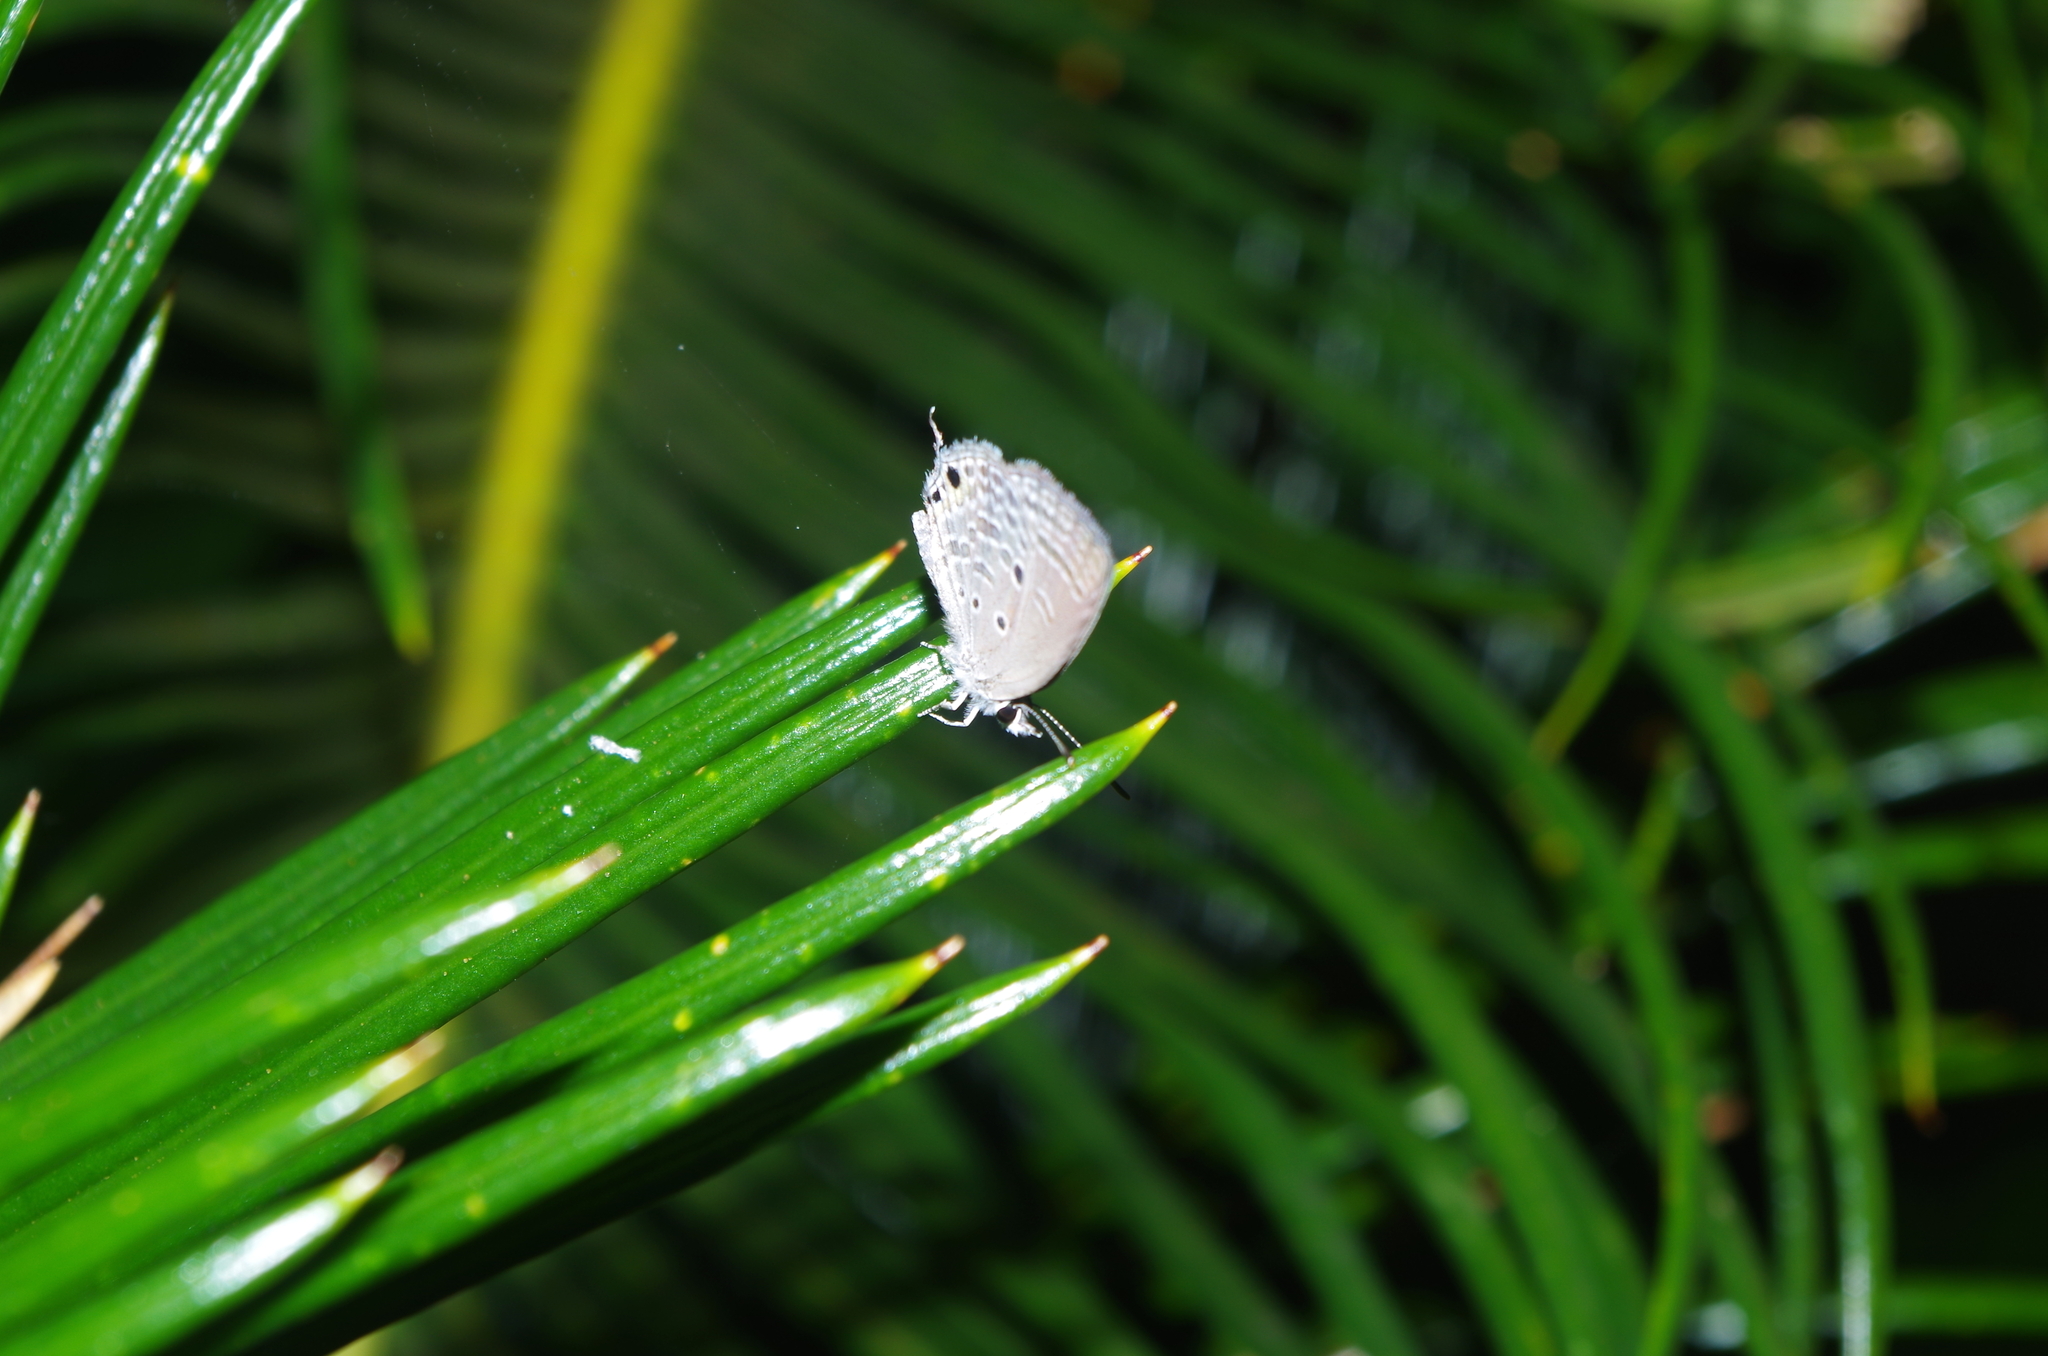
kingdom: Animalia
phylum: Arthropoda
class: Insecta
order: Lepidoptera
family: Lycaenidae
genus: Luthrodes
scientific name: Luthrodes pandava
